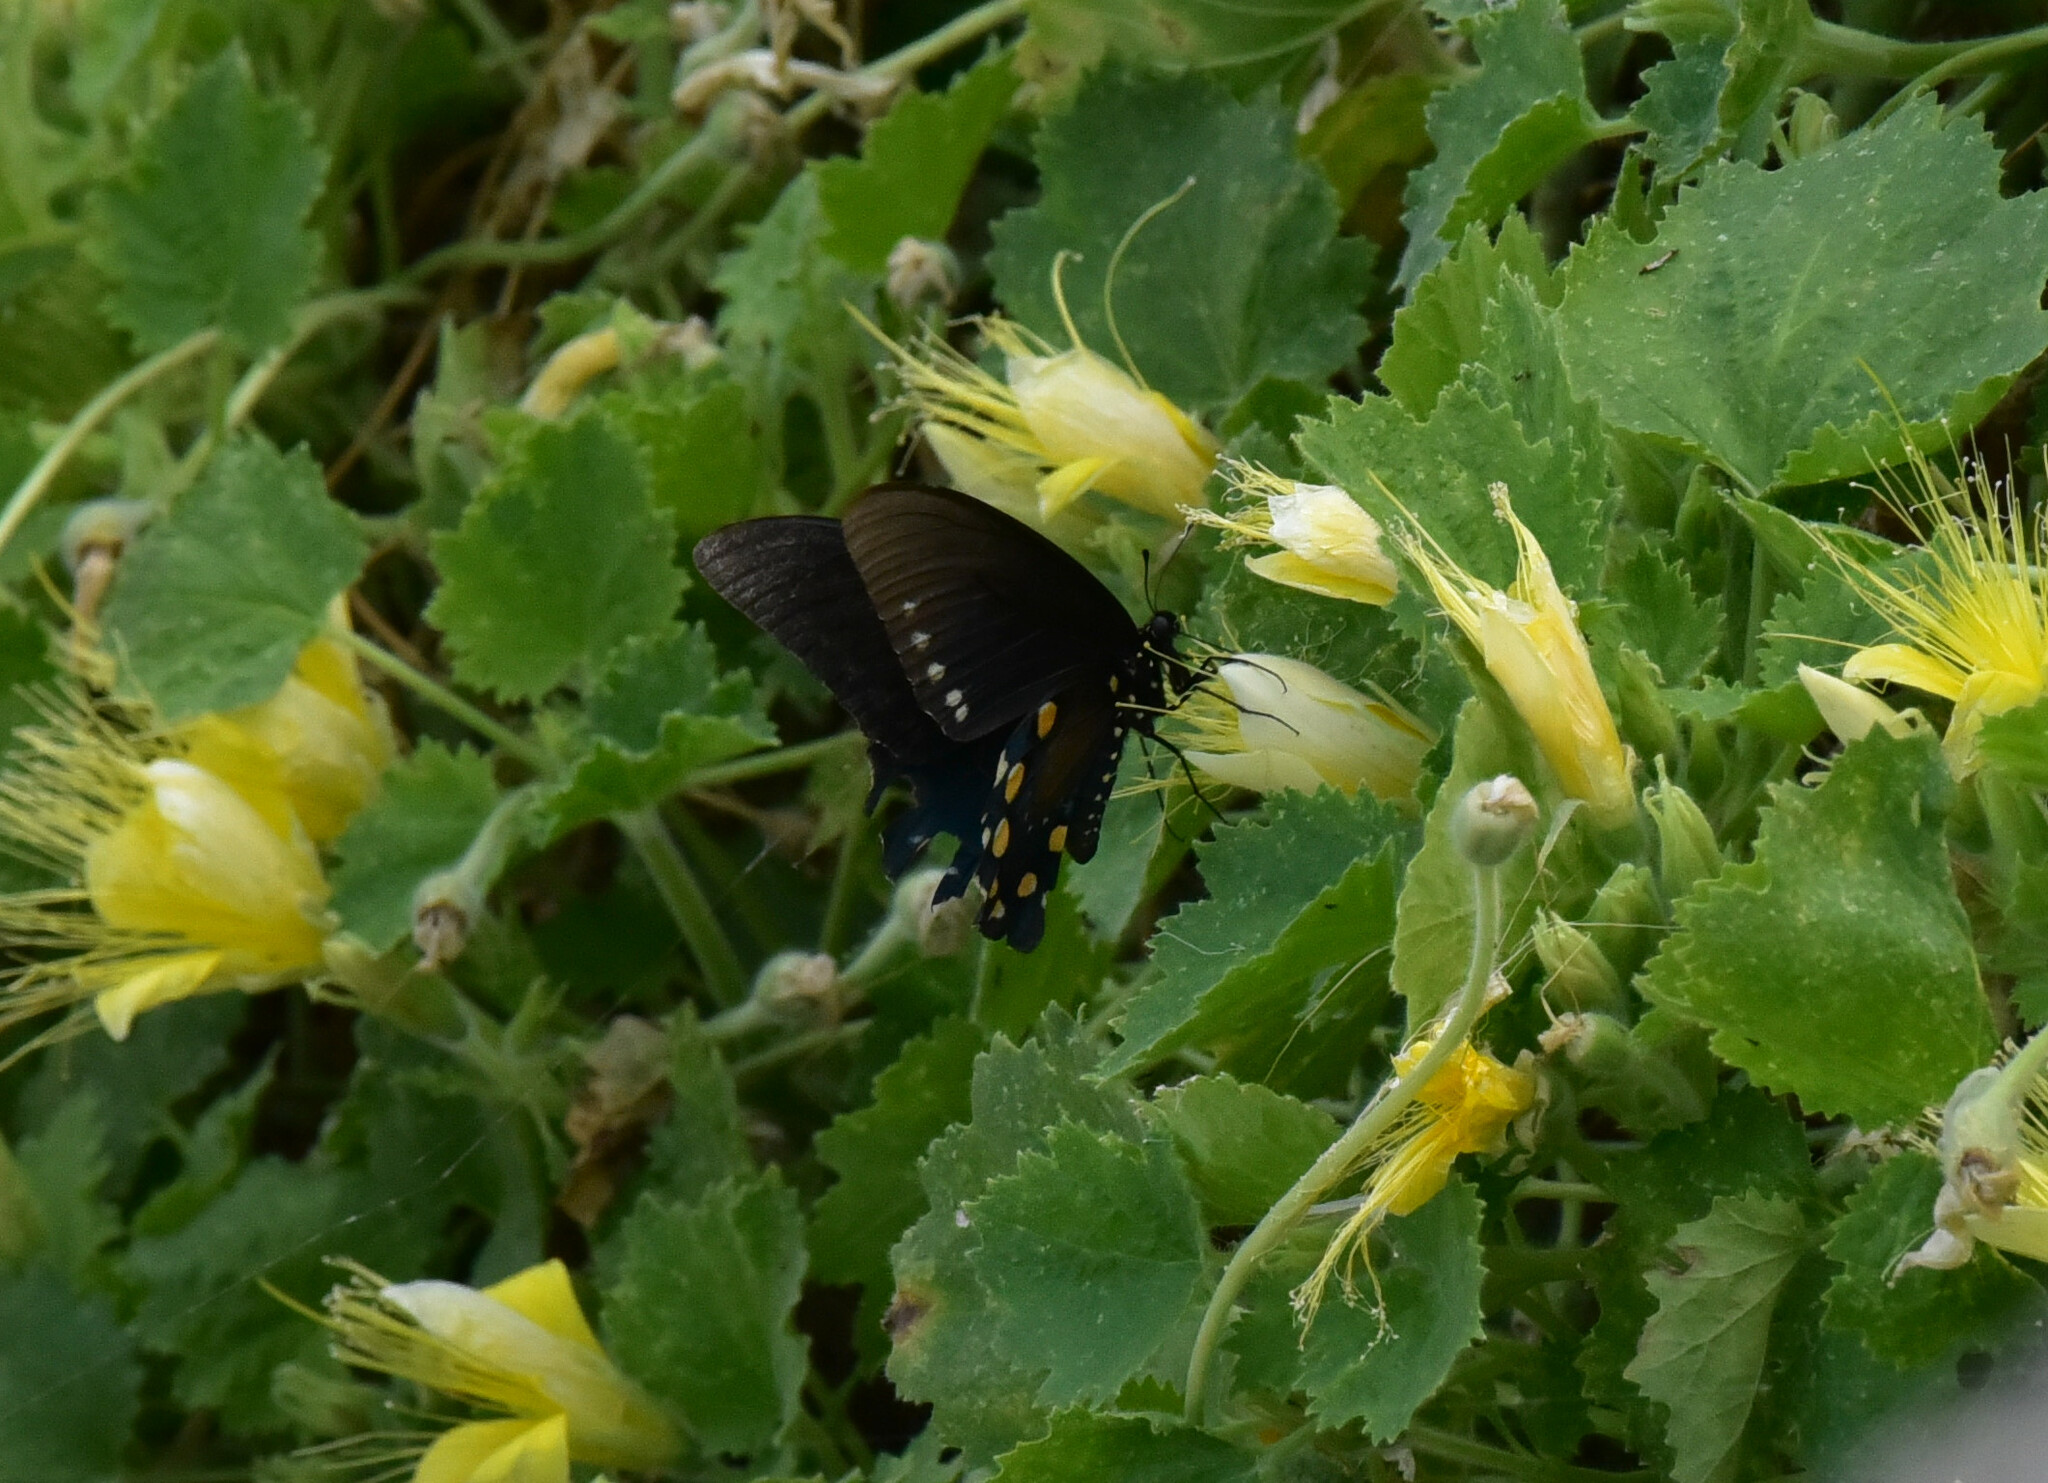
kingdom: Animalia
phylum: Arthropoda
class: Insecta
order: Lepidoptera
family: Papilionidae
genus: Battus
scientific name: Battus philenor
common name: Pipevine swallowtail
